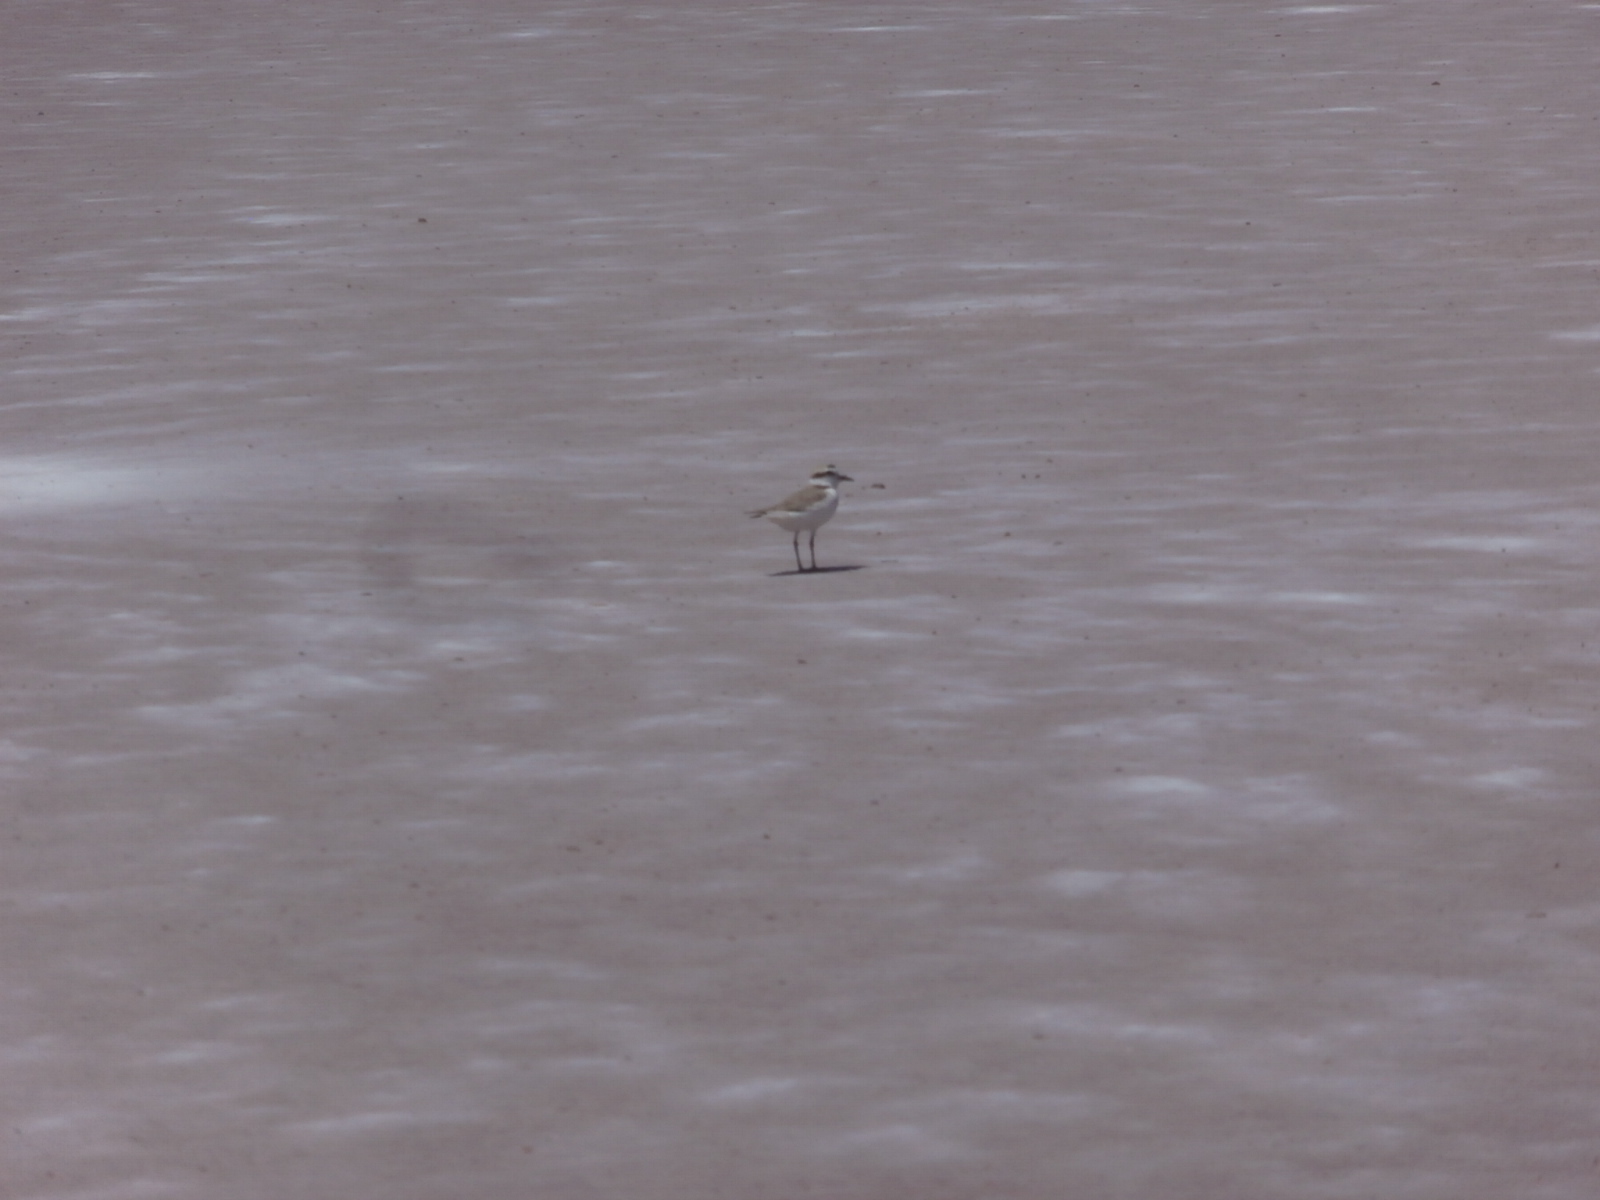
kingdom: Animalia
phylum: Chordata
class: Aves
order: Charadriiformes
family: Charadriidae
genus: Anarhynchus
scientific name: Anarhynchus
